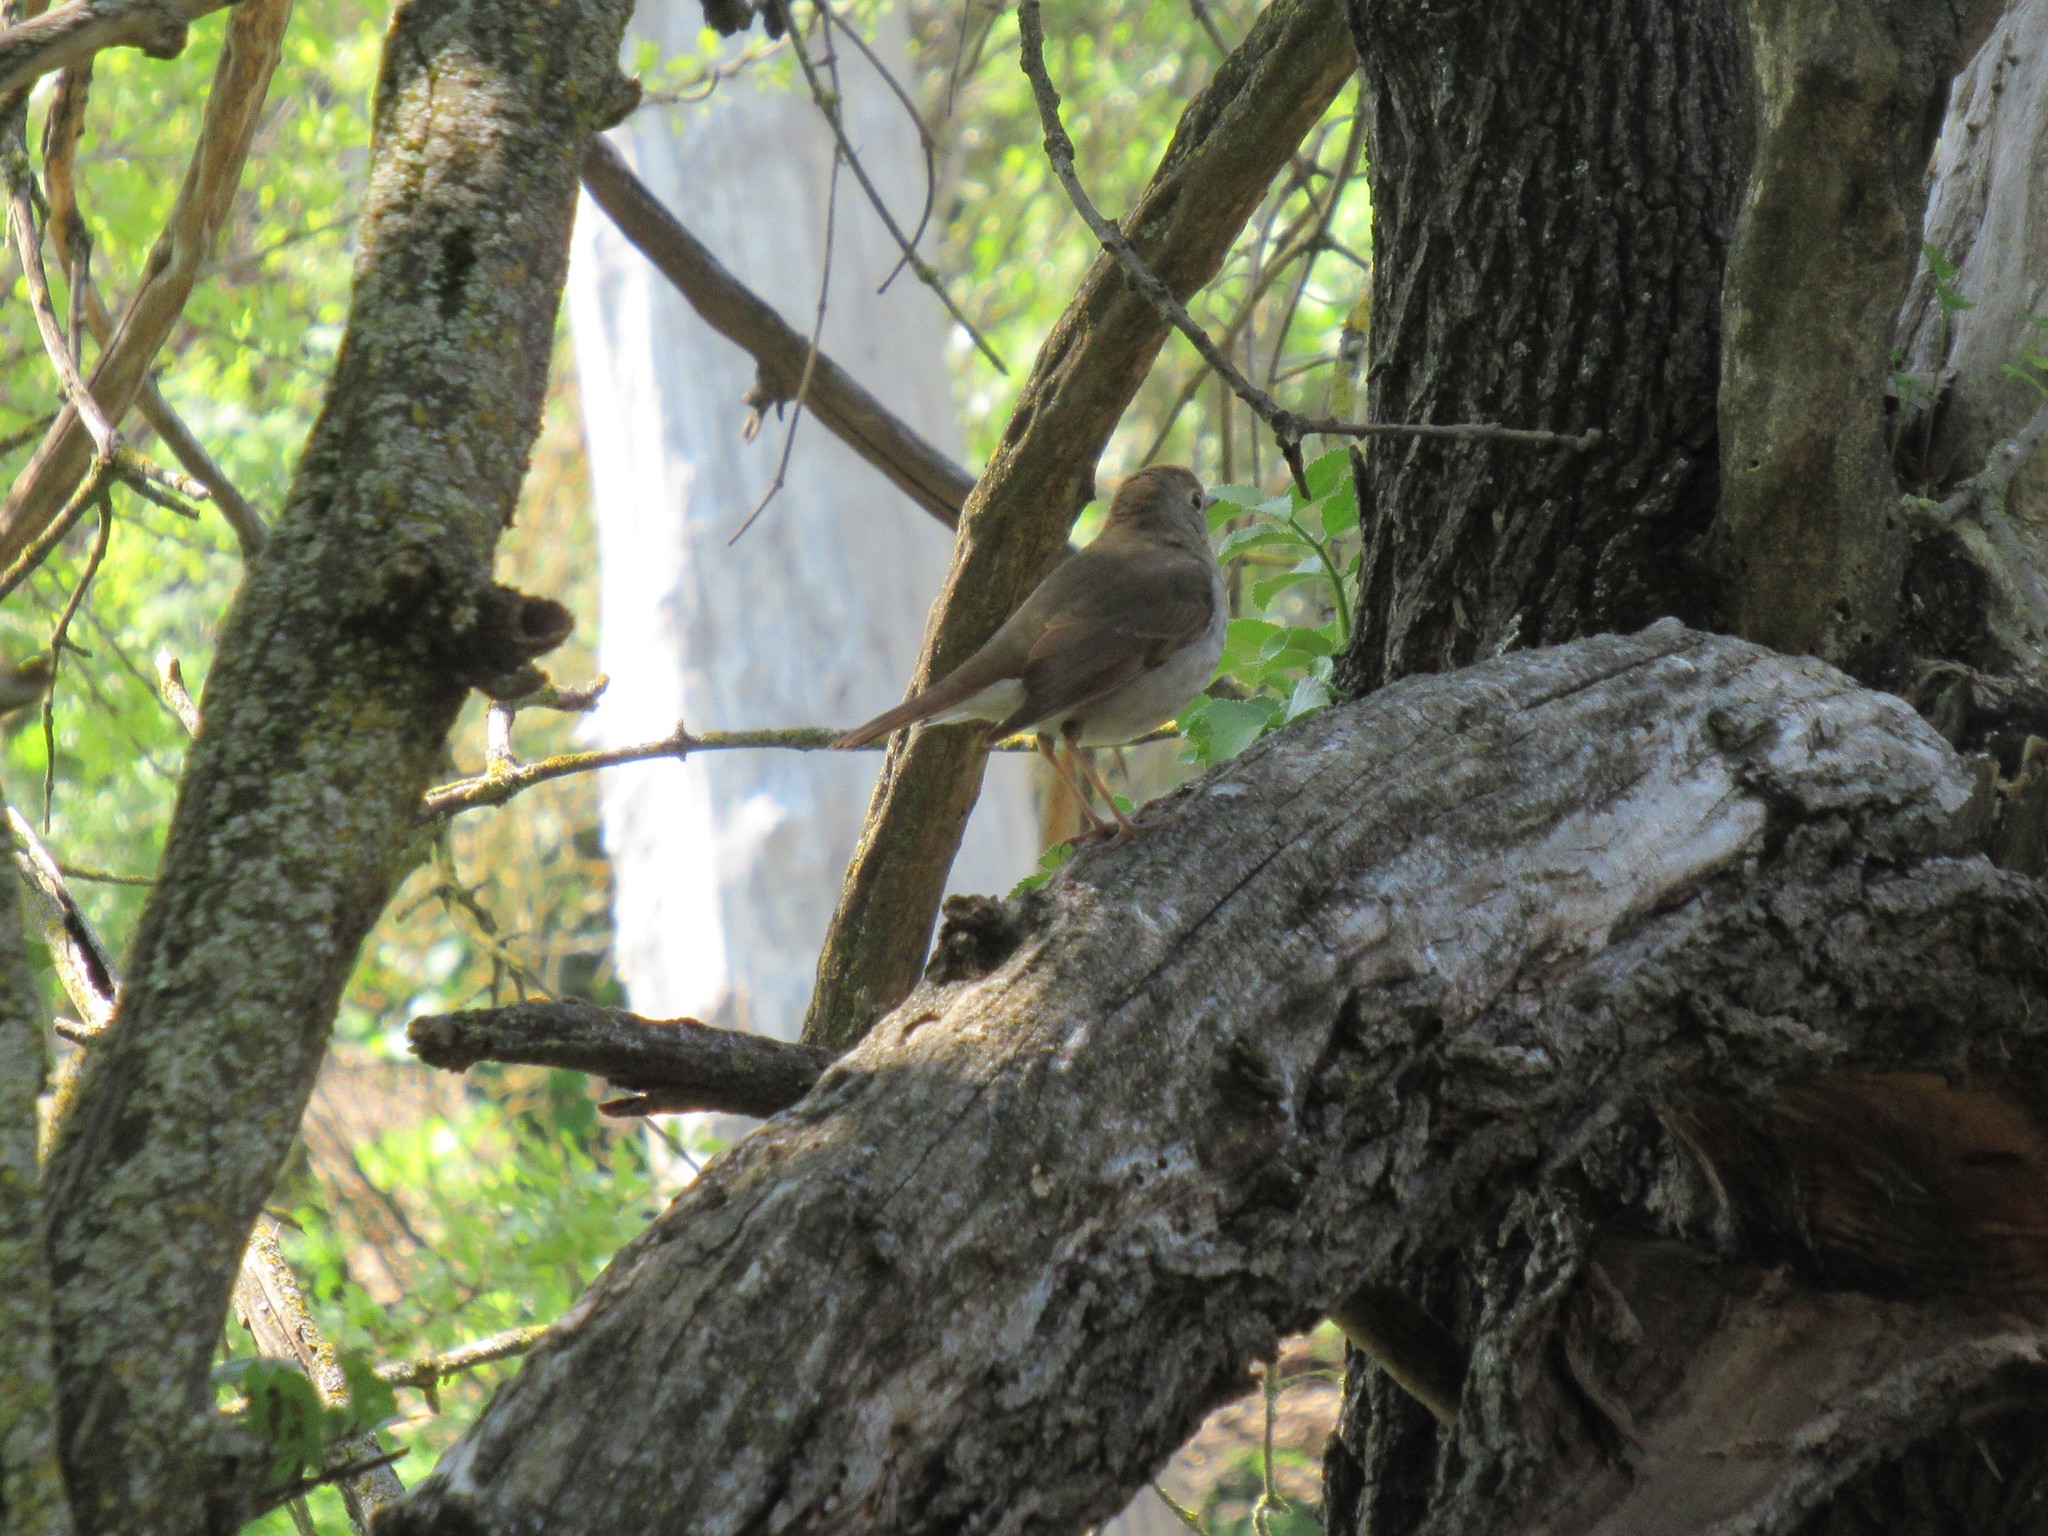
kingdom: Animalia
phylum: Chordata
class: Aves
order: Passeriformes
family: Turdidae
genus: Catharus
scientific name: Catharus guttatus
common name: Hermit thrush
